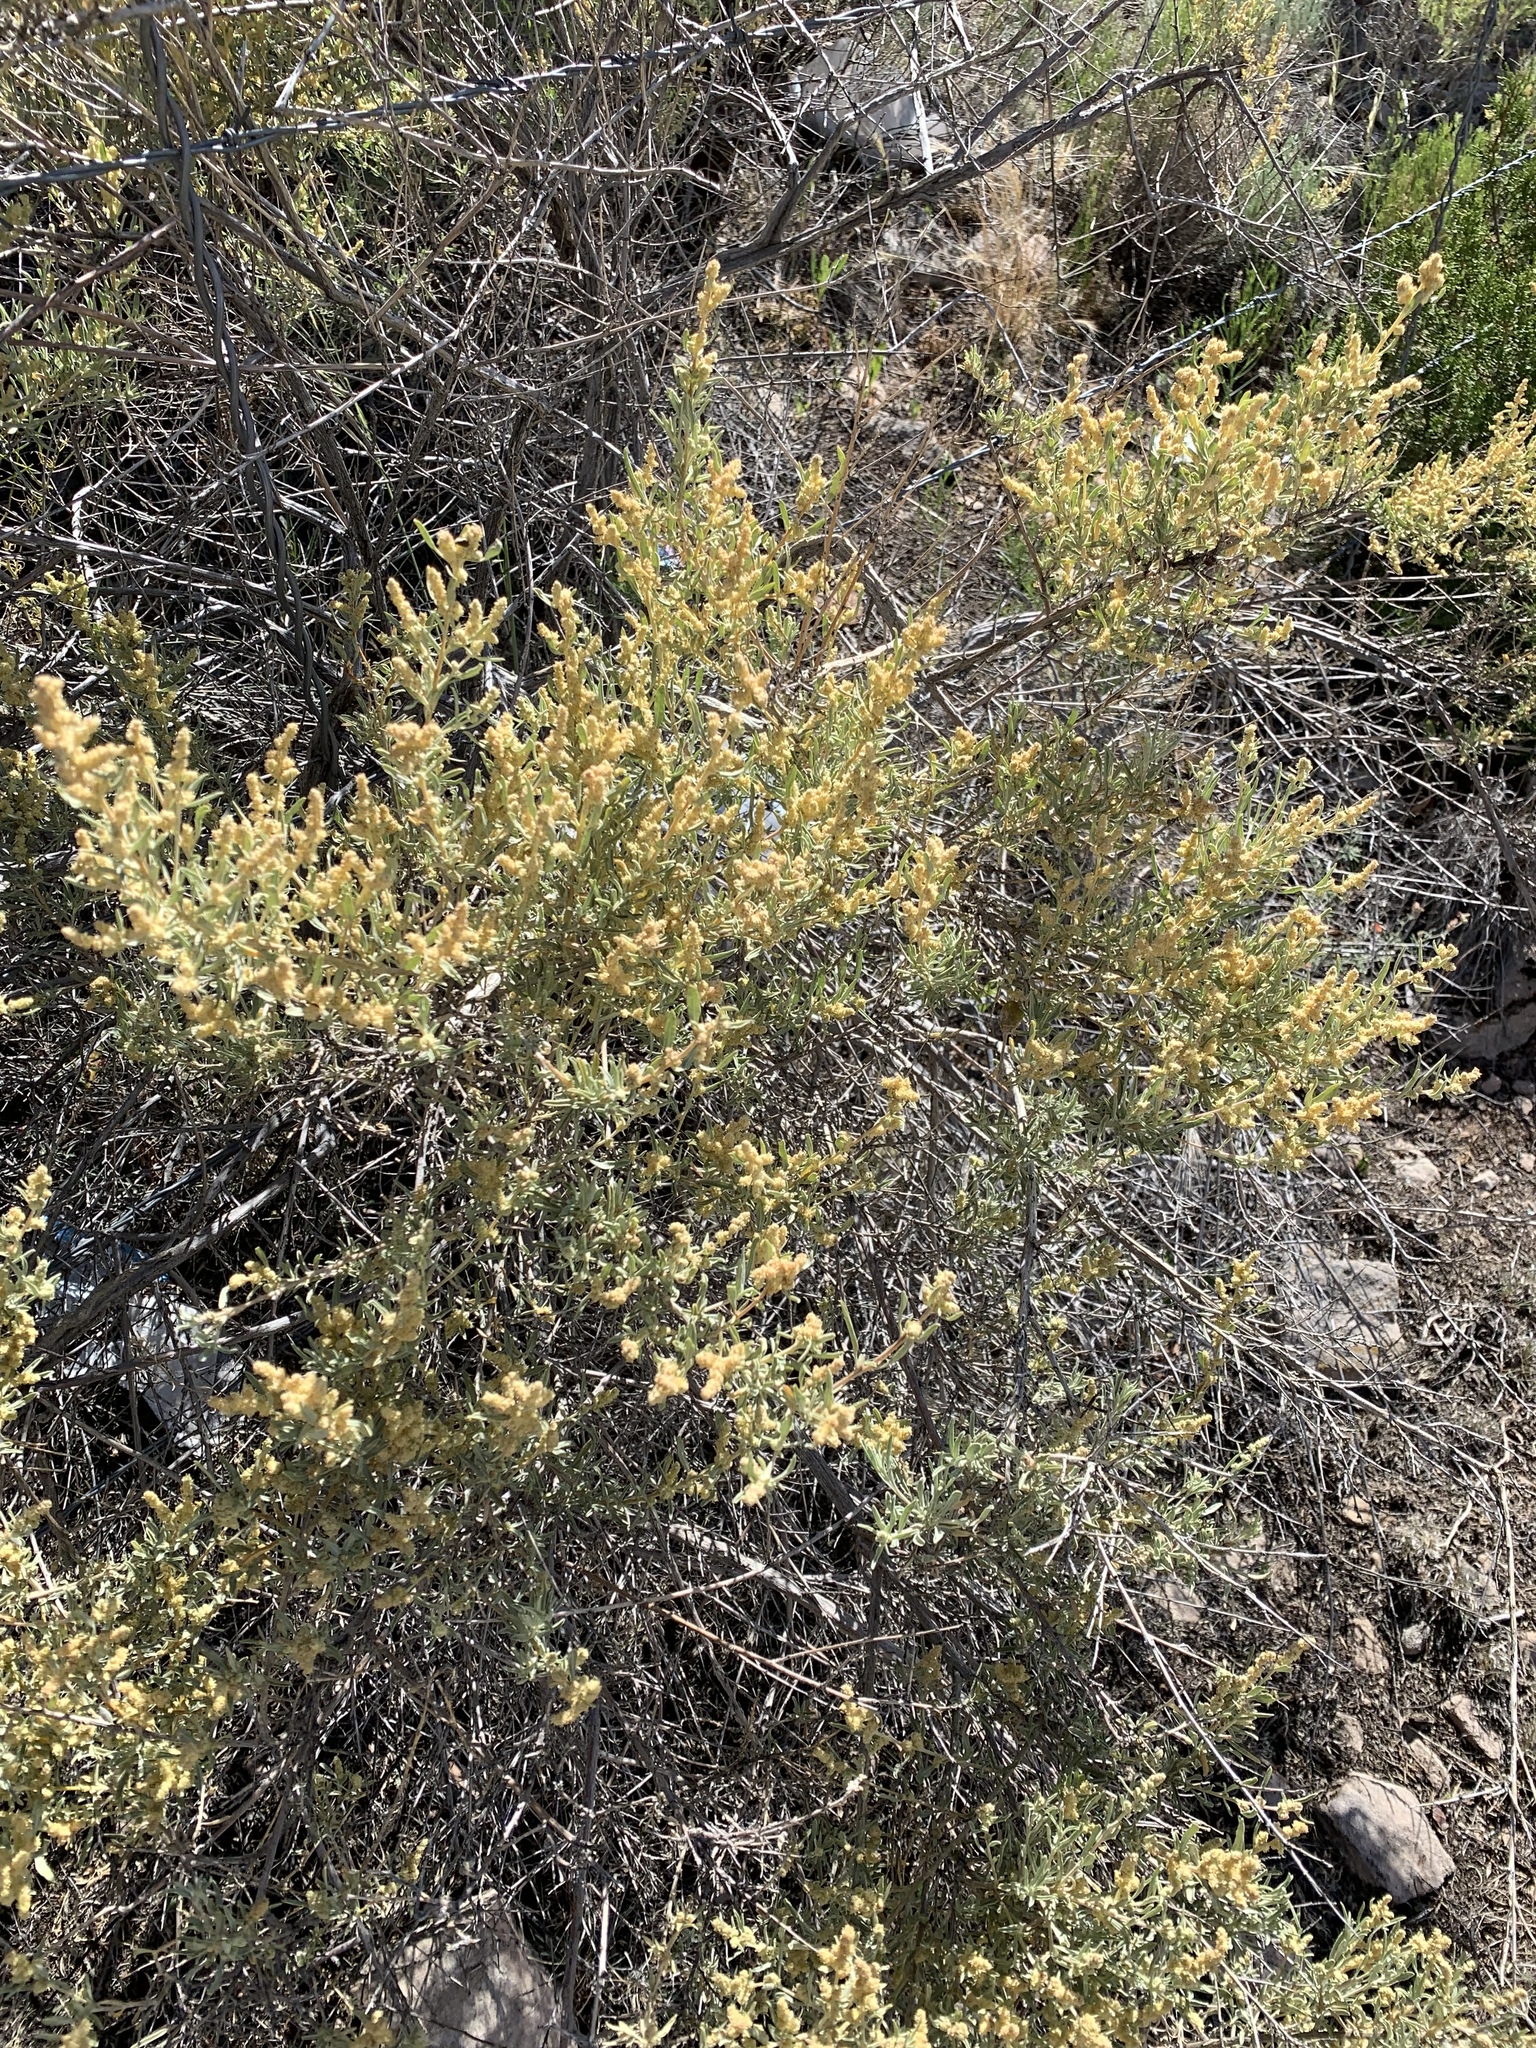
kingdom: Plantae
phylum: Tracheophyta
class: Magnoliopsida
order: Caryophyllales
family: Amaranthaceae
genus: Atriplex
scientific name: Atriplex canescens
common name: Four-wing saltbush
